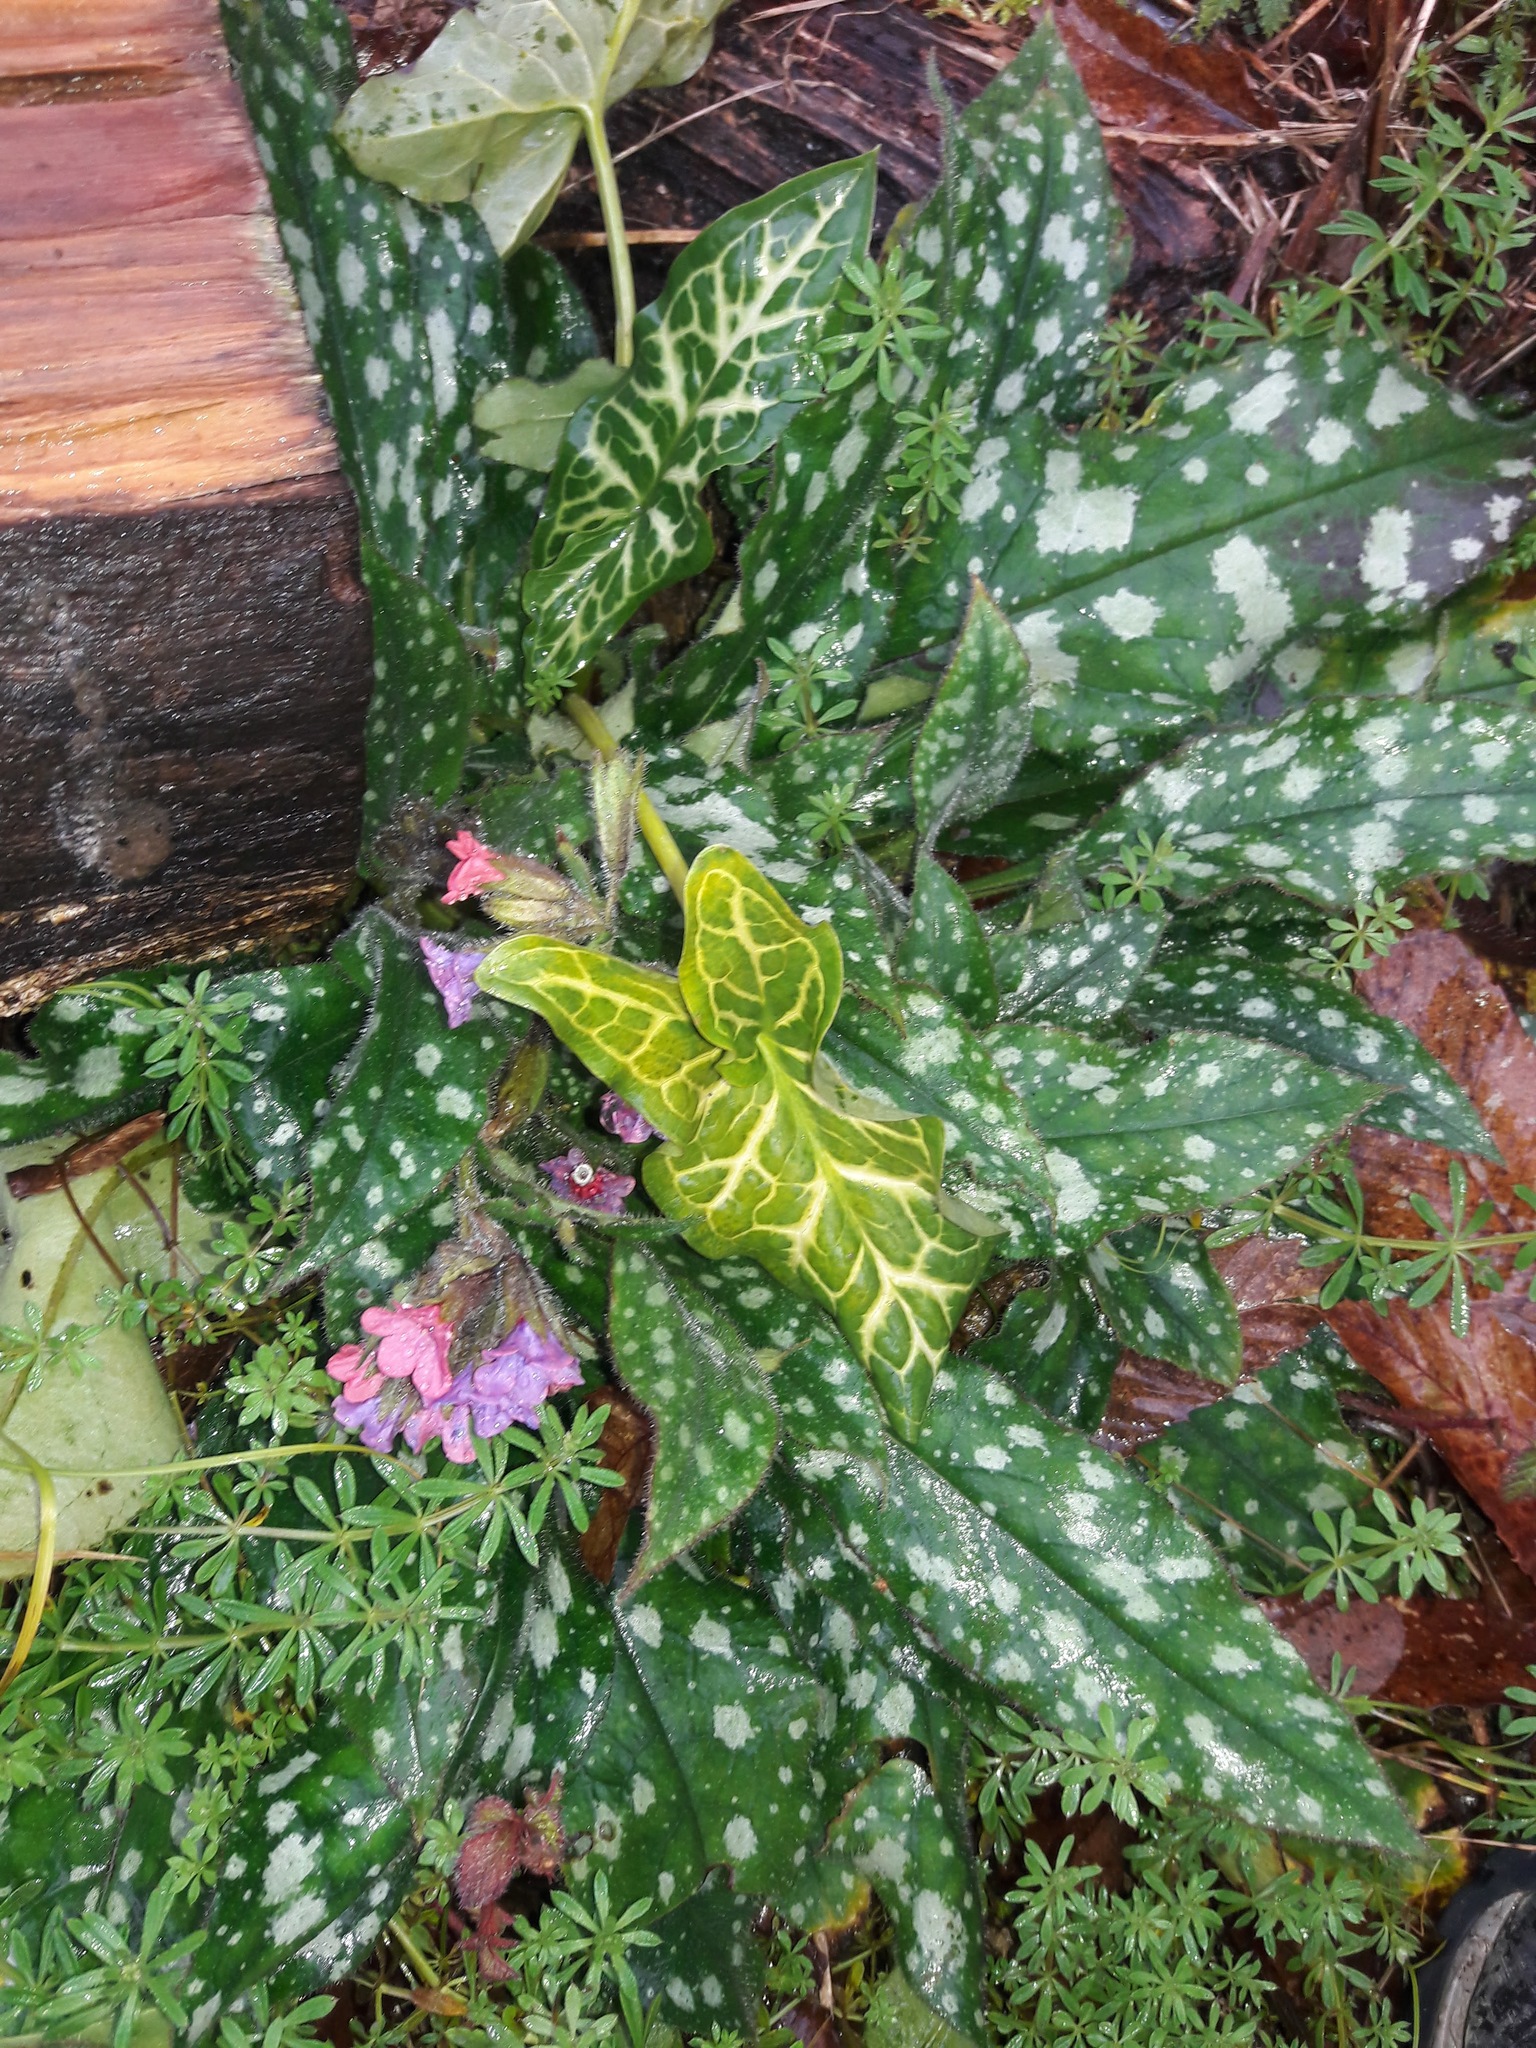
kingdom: Plantae
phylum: Tracheophyta
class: Magnoliopsida
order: Boraginales
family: Boraginaceae
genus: Pulmonaria
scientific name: Pulmonaria officinalis
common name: Lungwort
